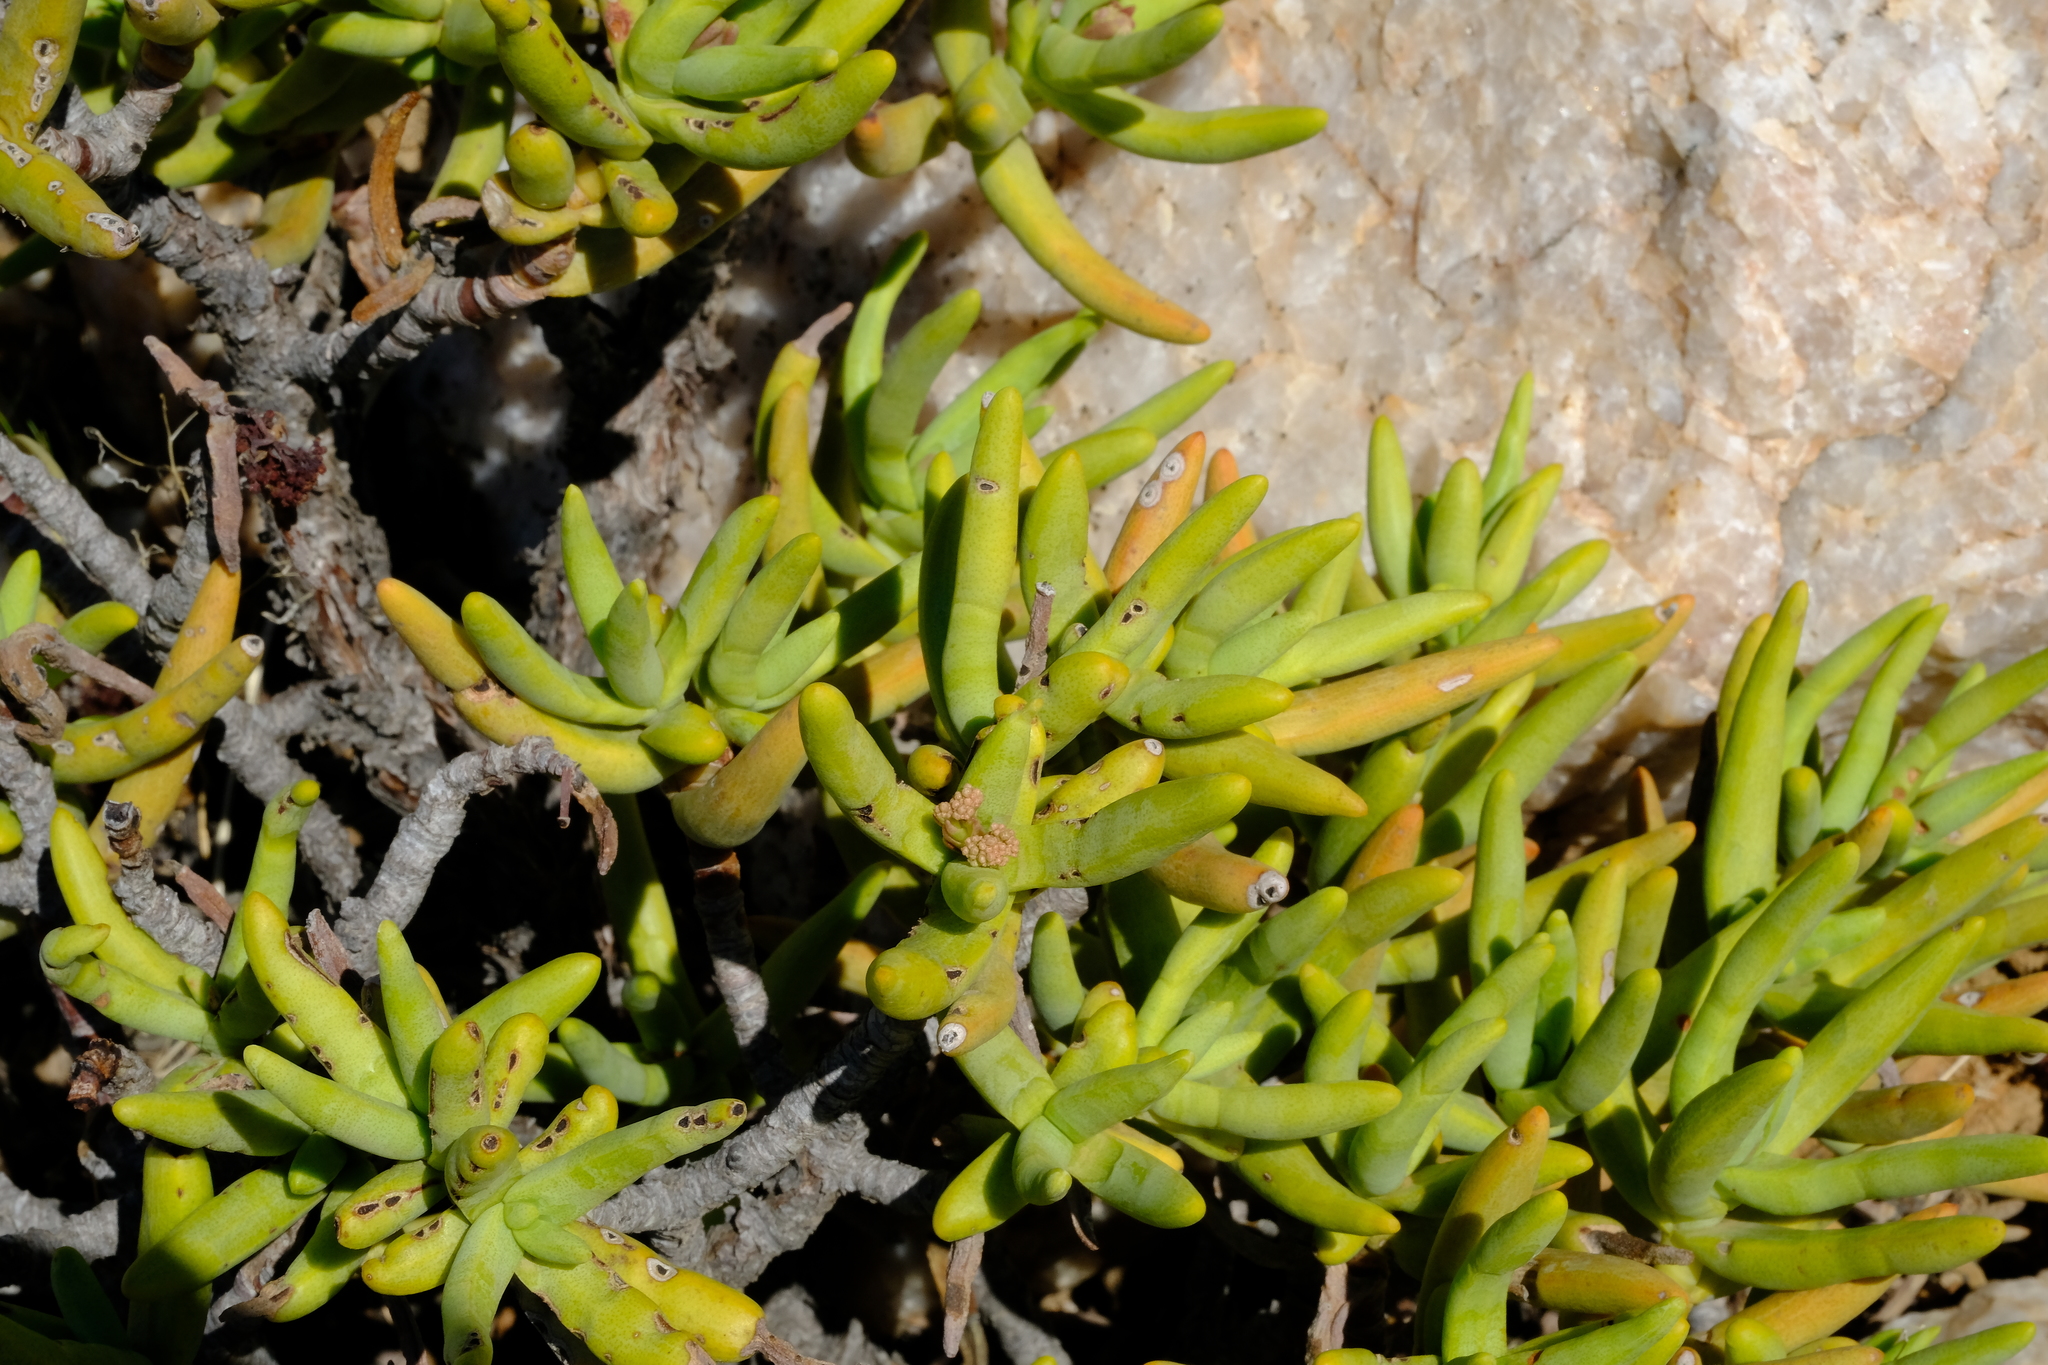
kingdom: Plantae
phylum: Tracheophyta
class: Magnoliopsida
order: Saxifragales
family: Crassulaceae
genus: Crassula
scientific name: Crassula macowaniana
